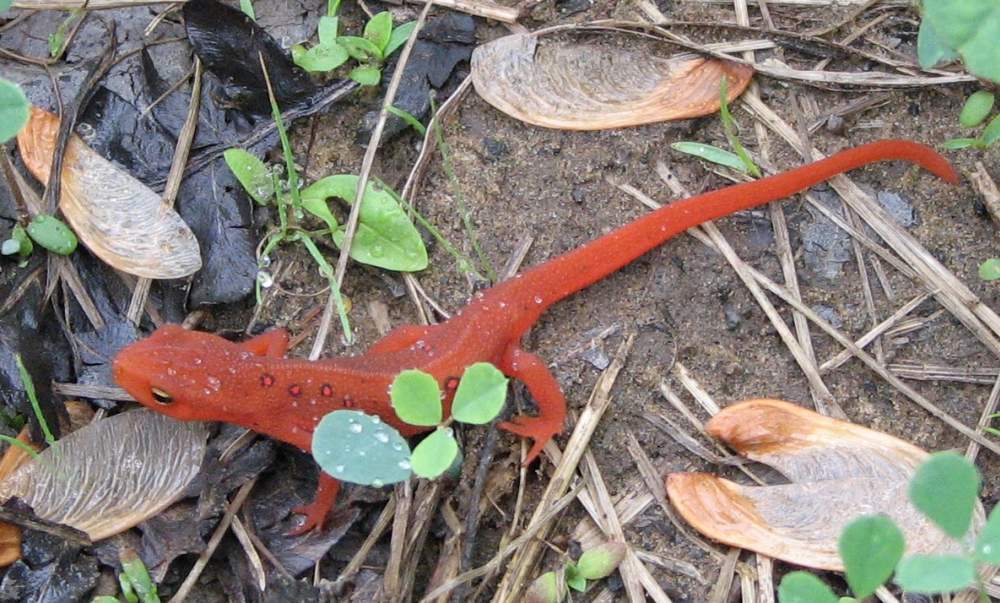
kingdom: Animalia
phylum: Chordata
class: Amphibia
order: Caudata
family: Salamandridae
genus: Notophthalmus
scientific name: Notophthalmus viridescens
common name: Eastern newt
